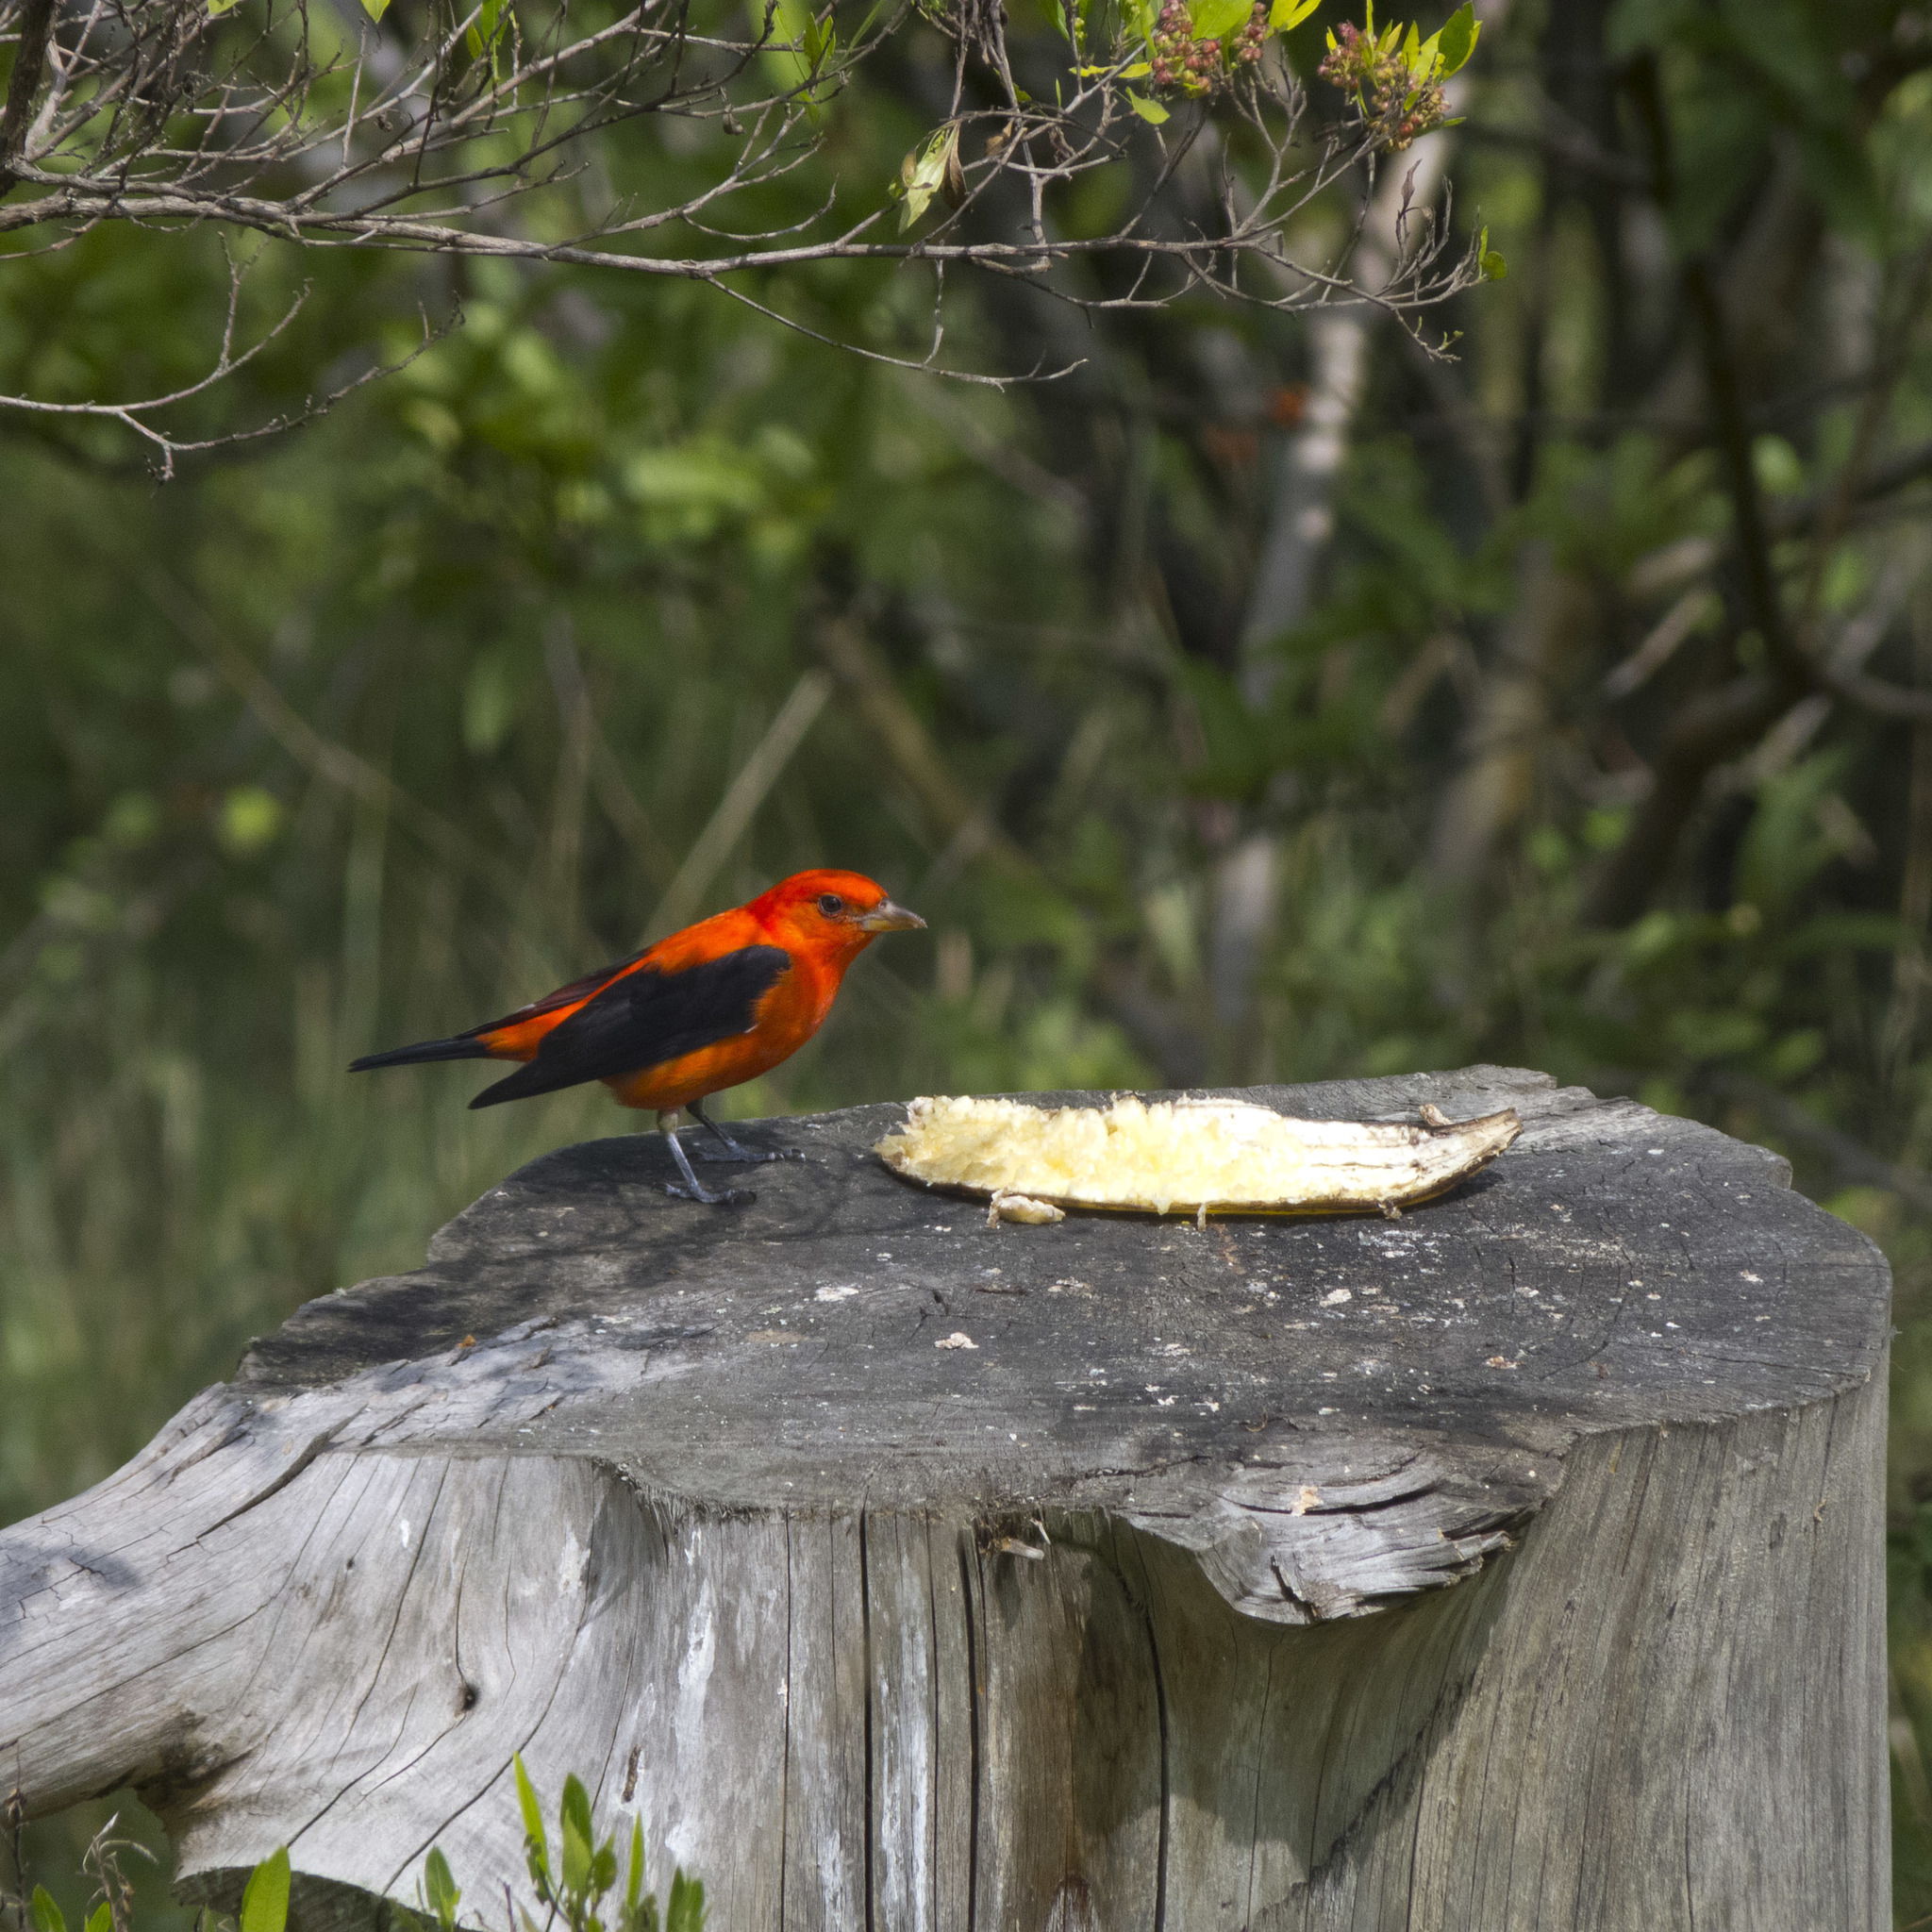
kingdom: Animalia
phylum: Chordata
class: Aves
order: Passeriformes
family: Cardinalidae
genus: Piranga
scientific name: Piranga olivacea
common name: Scarlet tanager
